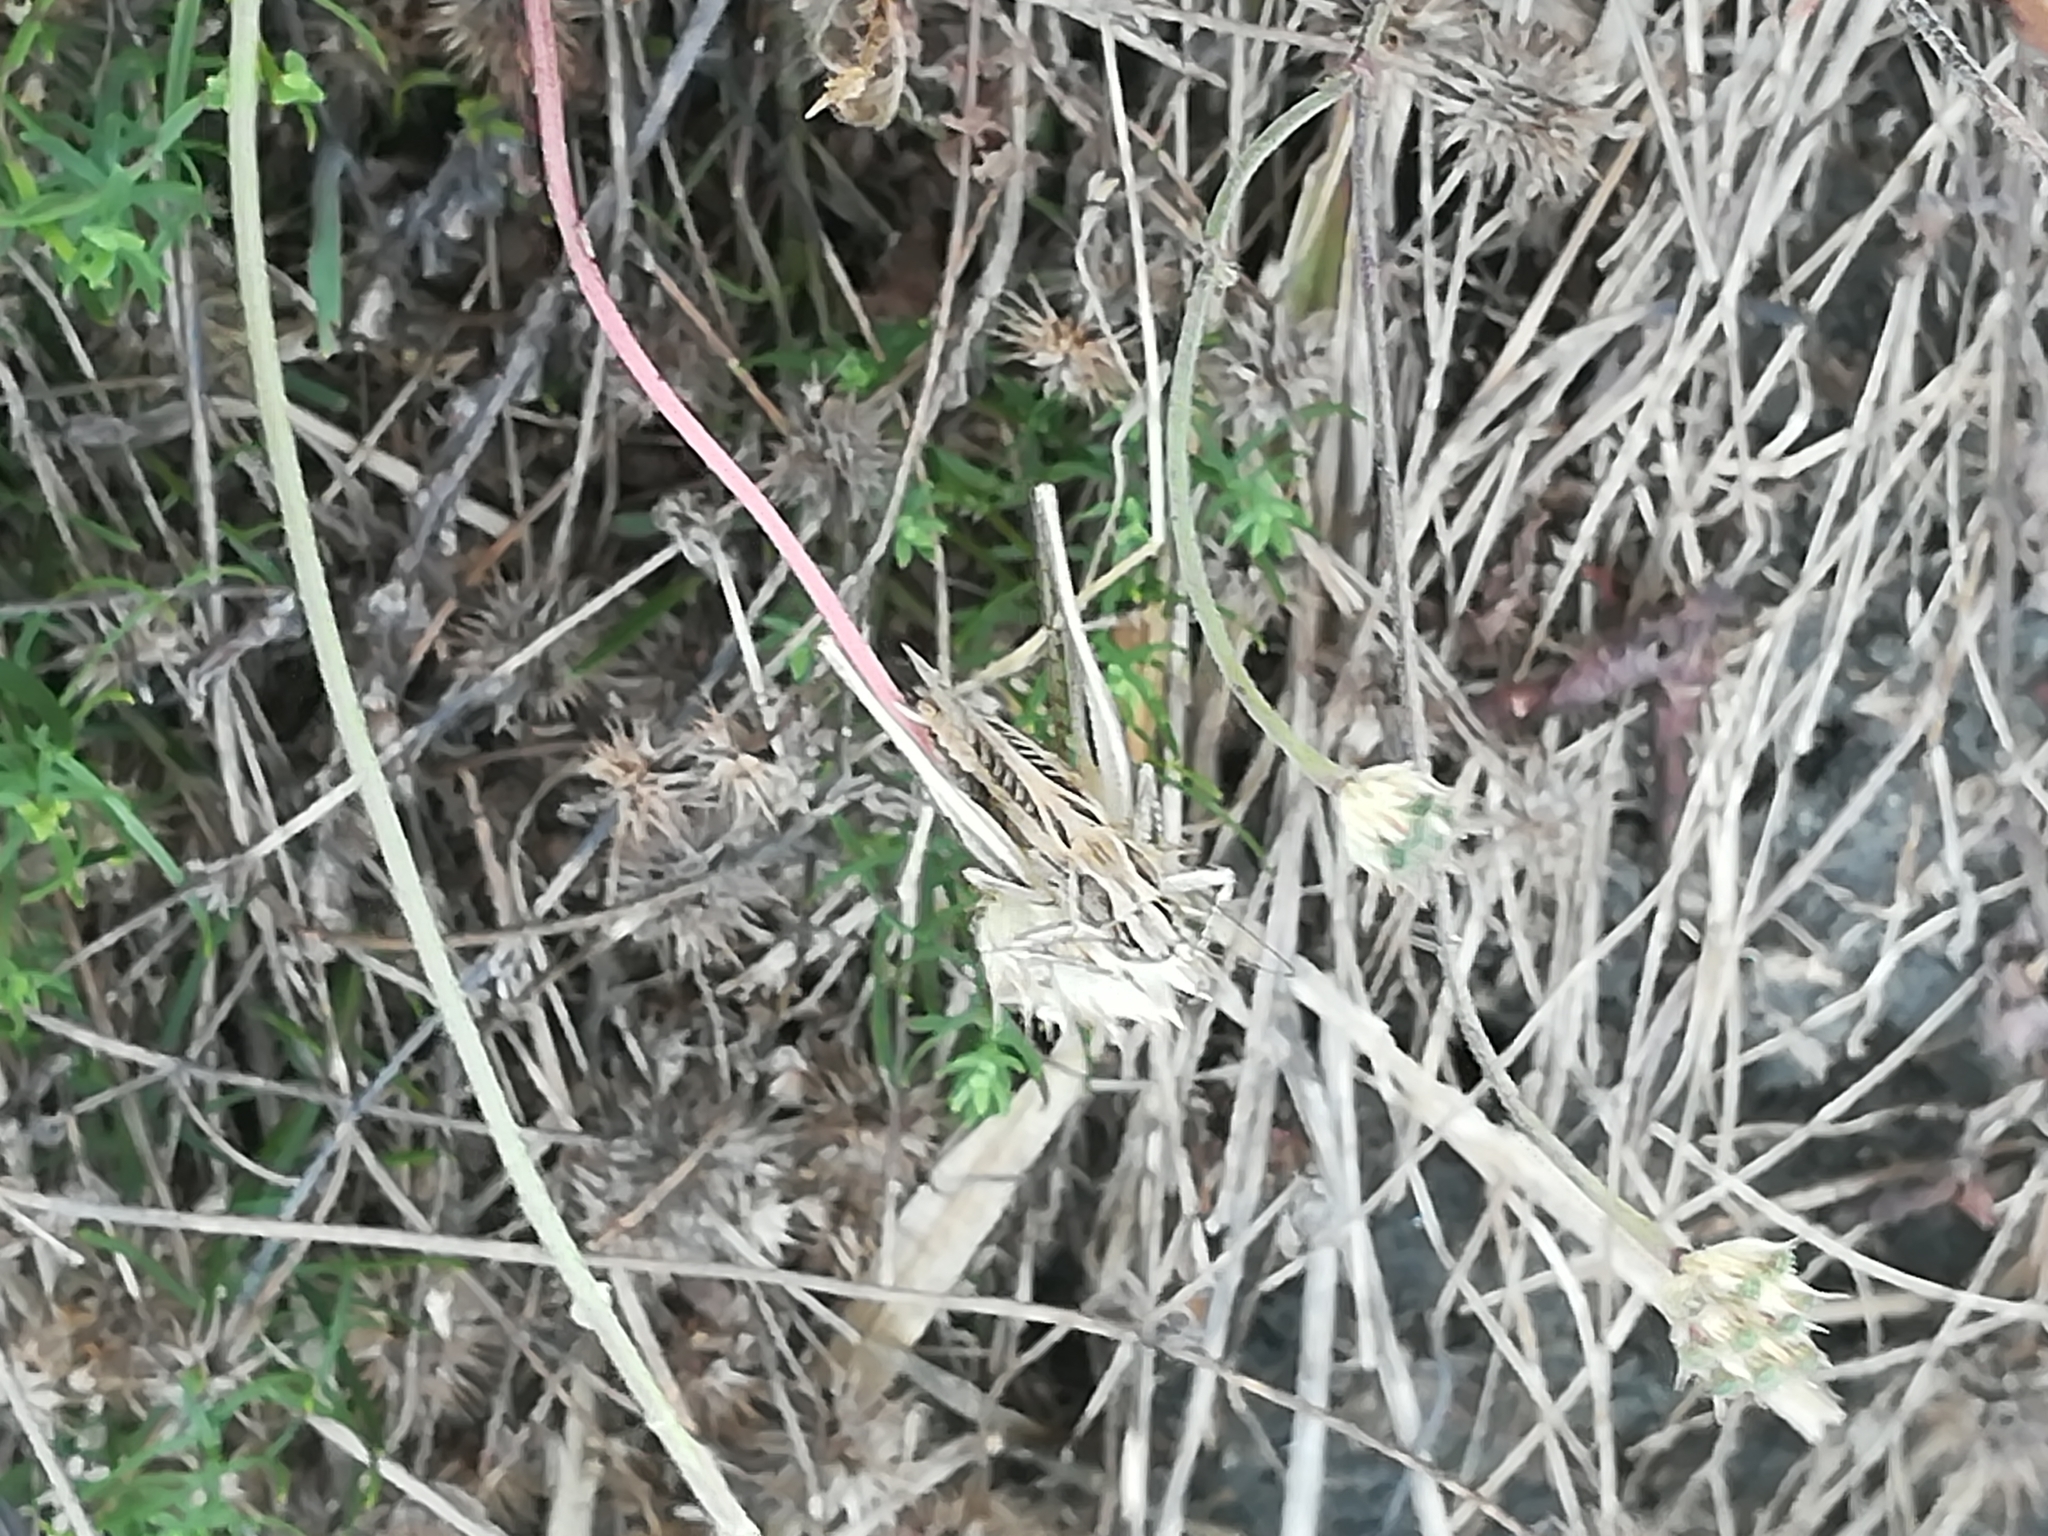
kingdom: Animalia
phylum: Arthropoda
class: Insecta
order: Orthoptera
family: Tettigoniidae
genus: Tessellana
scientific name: Tessellana tessellata
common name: Grasshopper
